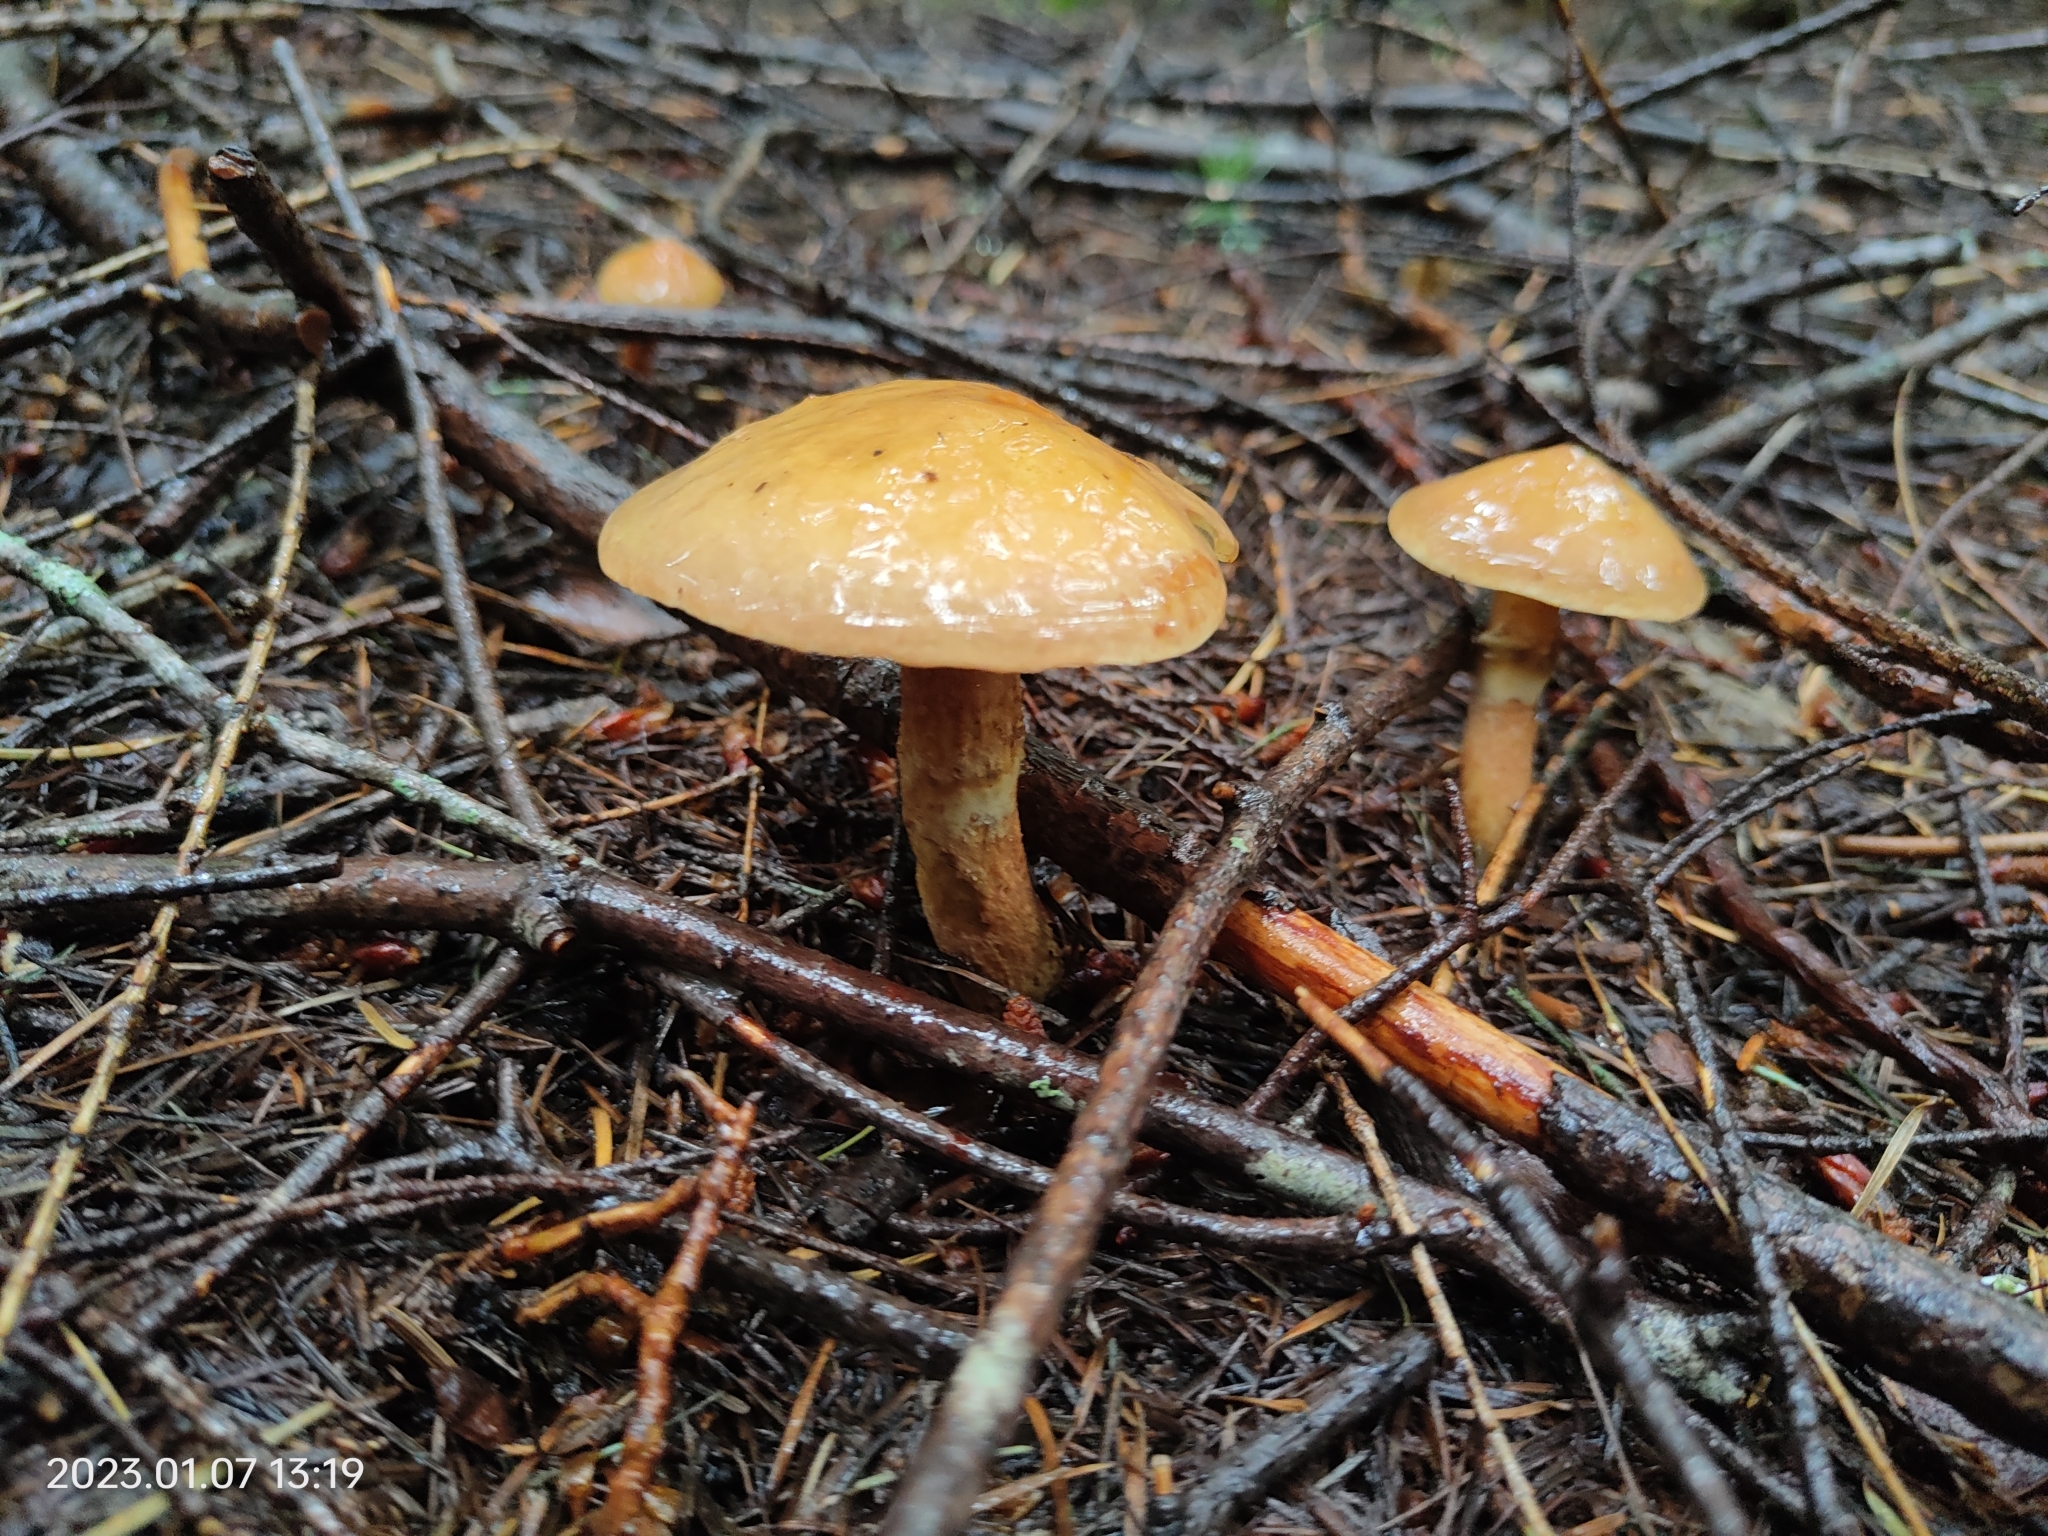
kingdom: Fungi
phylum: Basidiomycota
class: Agaricomycetes
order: Boletales
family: Suillaceae
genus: Suillus
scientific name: Suillus grevillei
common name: Larch bolete
